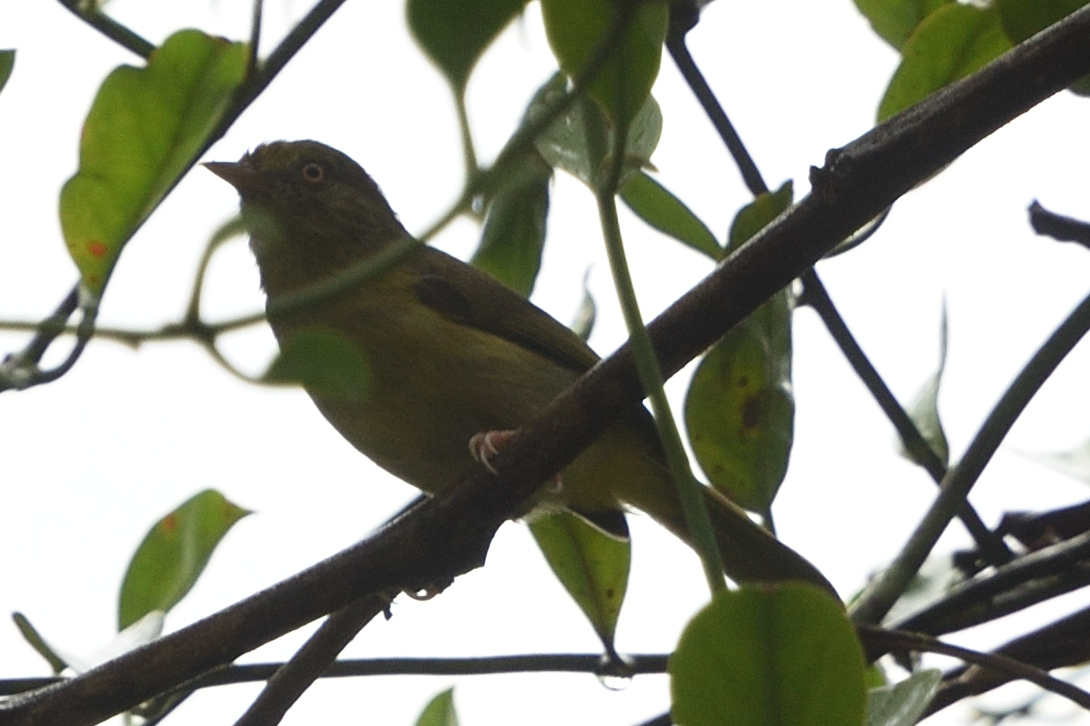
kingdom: Animalia
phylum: Chordata
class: Aves
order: Passeriformes
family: Thraupidae
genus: Dacnis
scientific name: Dacnis lineata
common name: Black-faced dacnis
